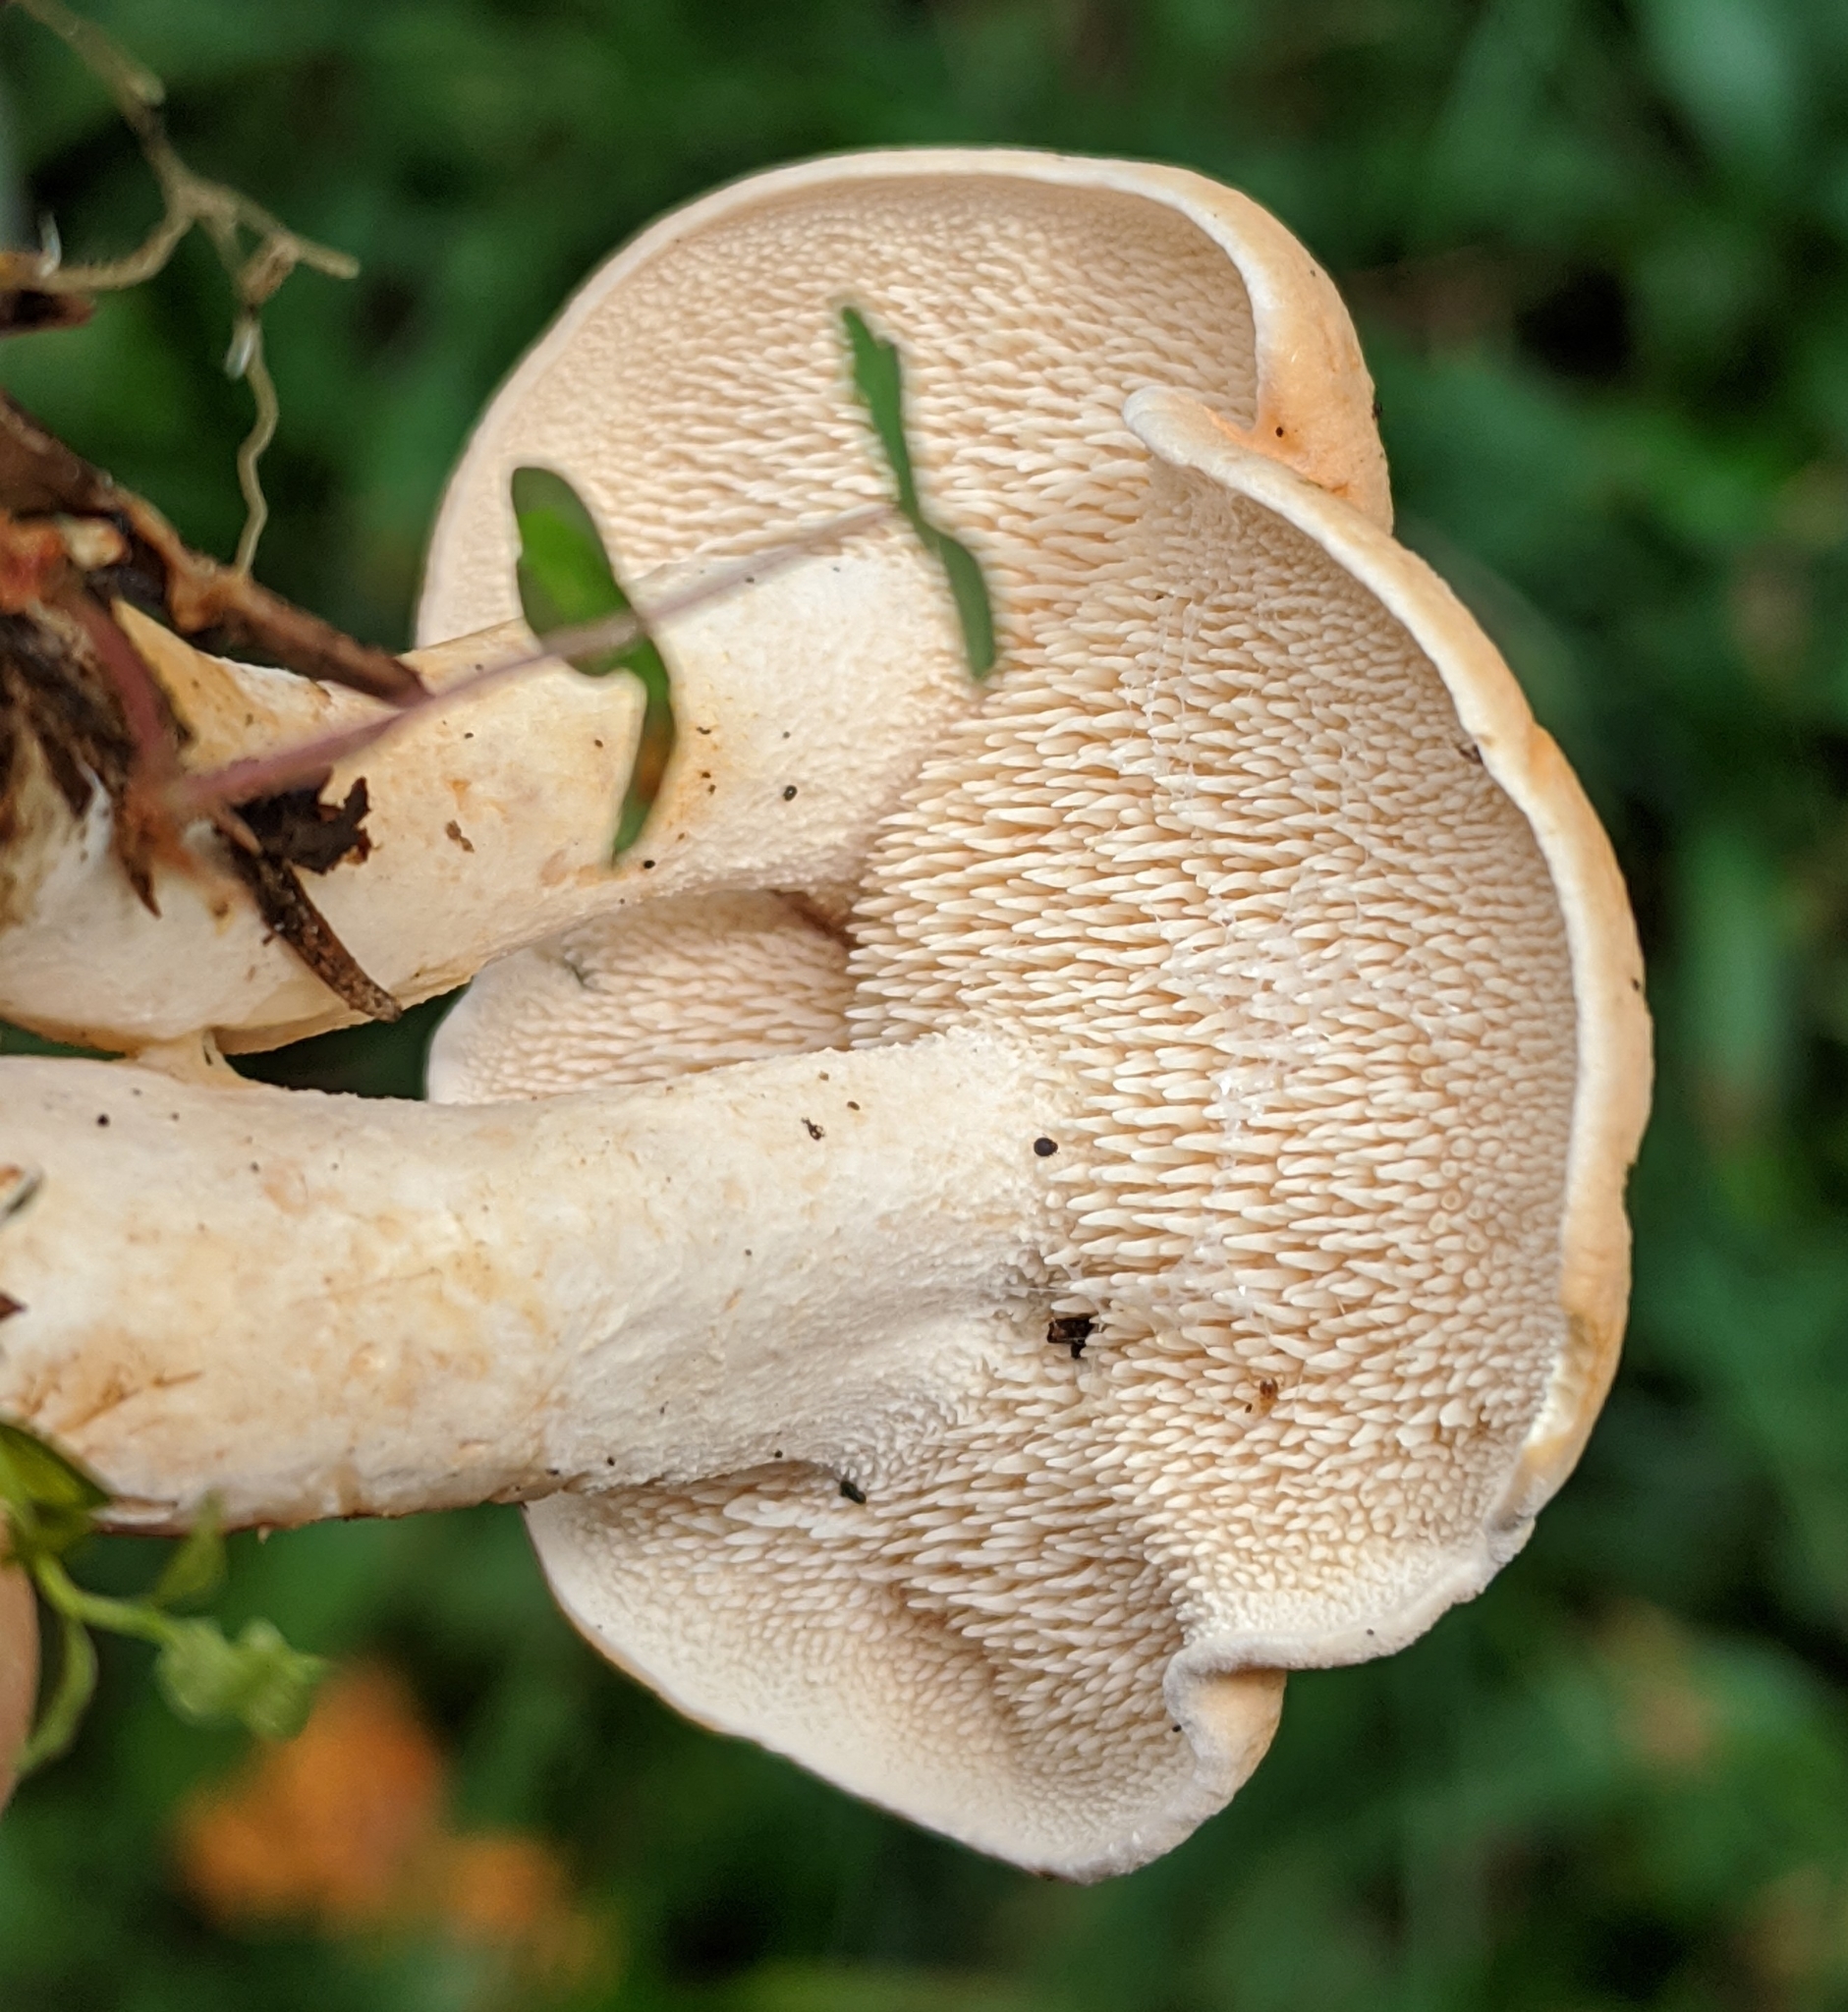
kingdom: Fungi
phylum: Basidiomycota
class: Agaricomycetes
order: Cantharellales
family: Hydnaceae
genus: Hydnum
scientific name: Hydnum repandum
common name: Wood hedgehog
